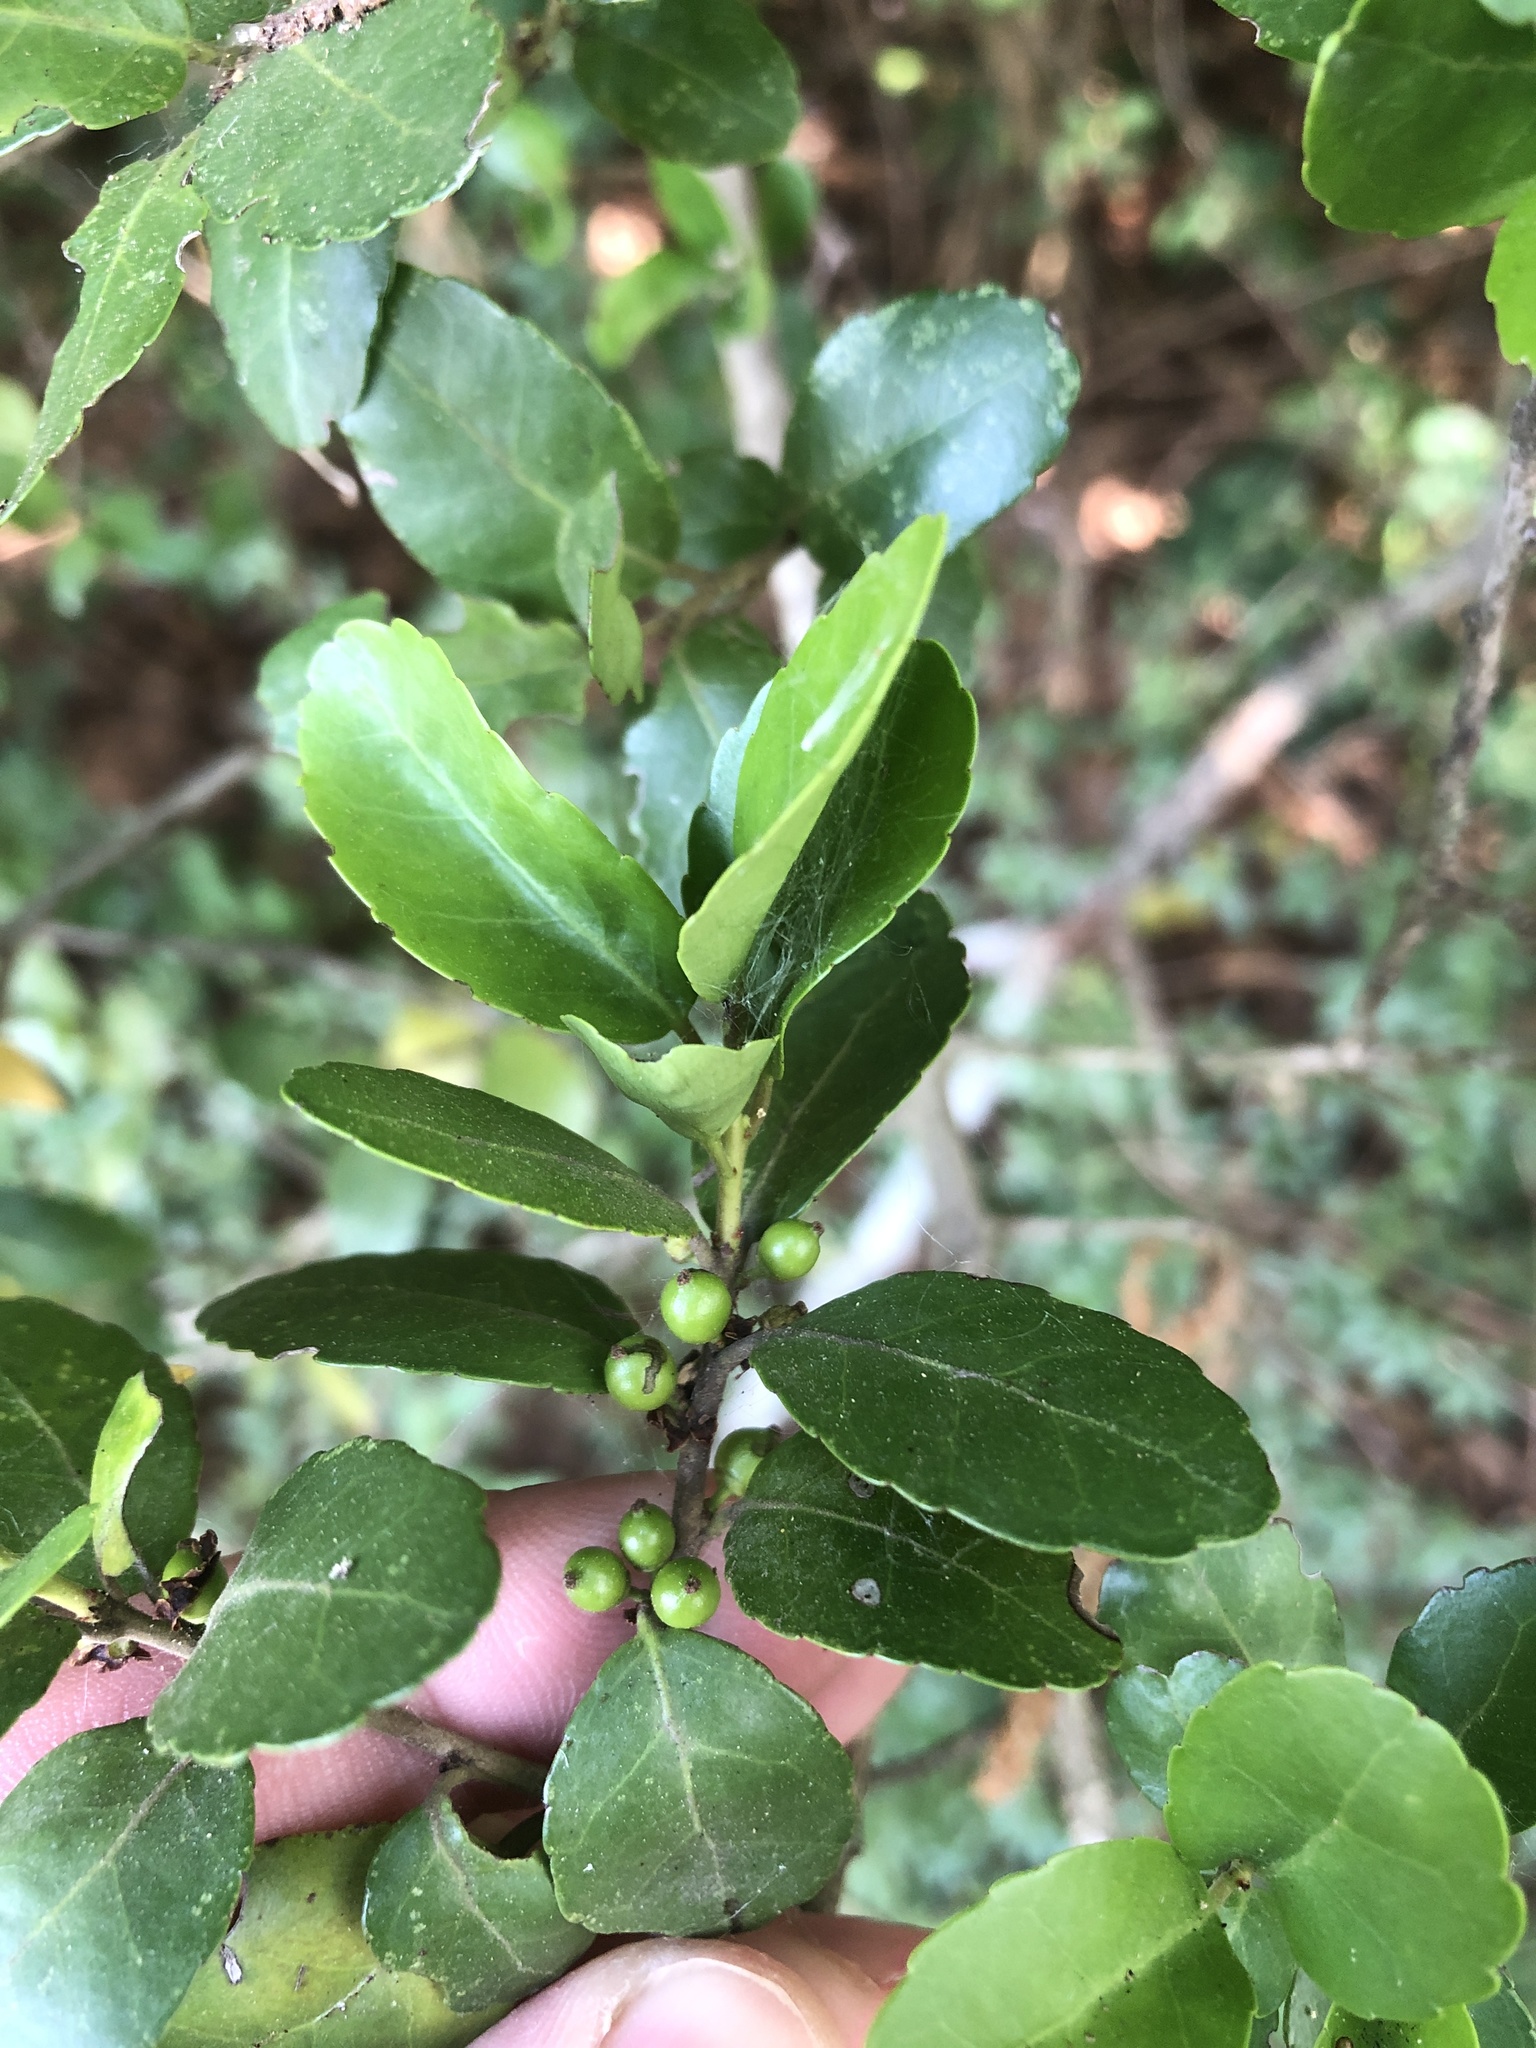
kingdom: Plantae
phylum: Tracheophyta
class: Magnoliopsida
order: Aquifoliales
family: Aquifoliaceae
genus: Ilex
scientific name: Ilex vomitoria
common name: Yaupon holly
